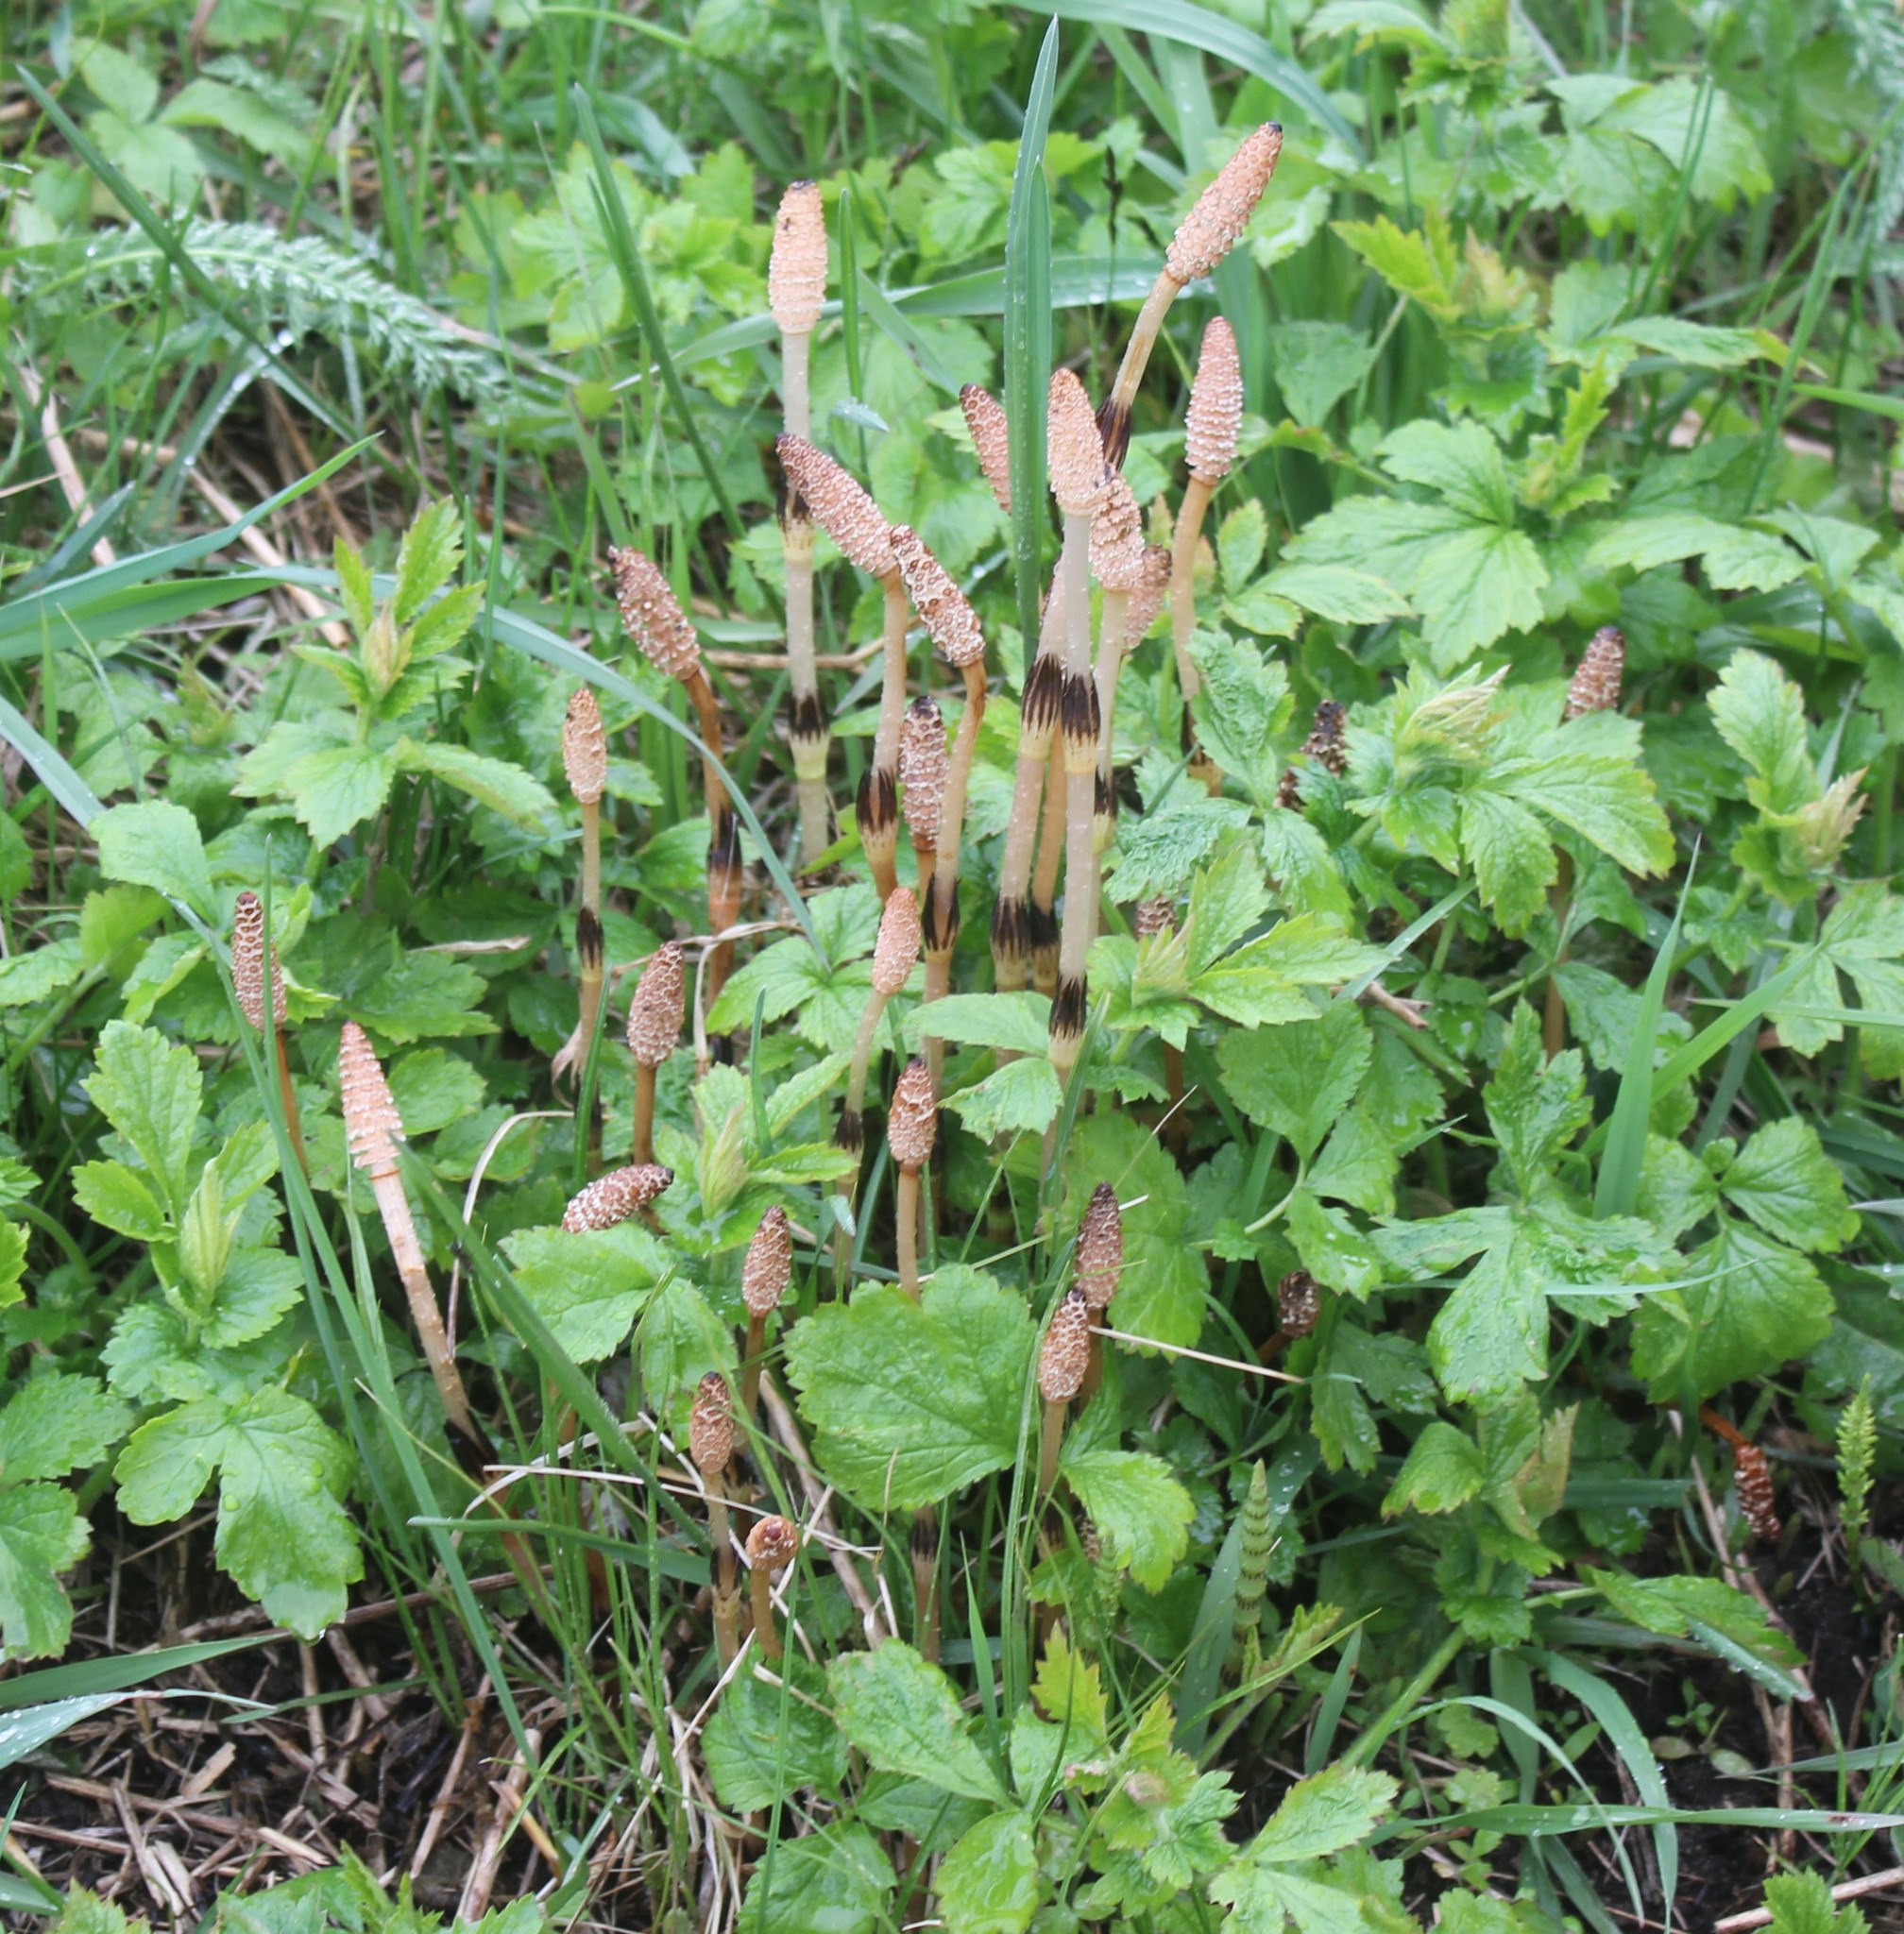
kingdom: Plantae
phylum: Tracheophyta
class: Polypodiopsida
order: Equisetales
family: Equisetaceae
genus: Equisetum
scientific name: Equisetum arvense
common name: Field horsetail
